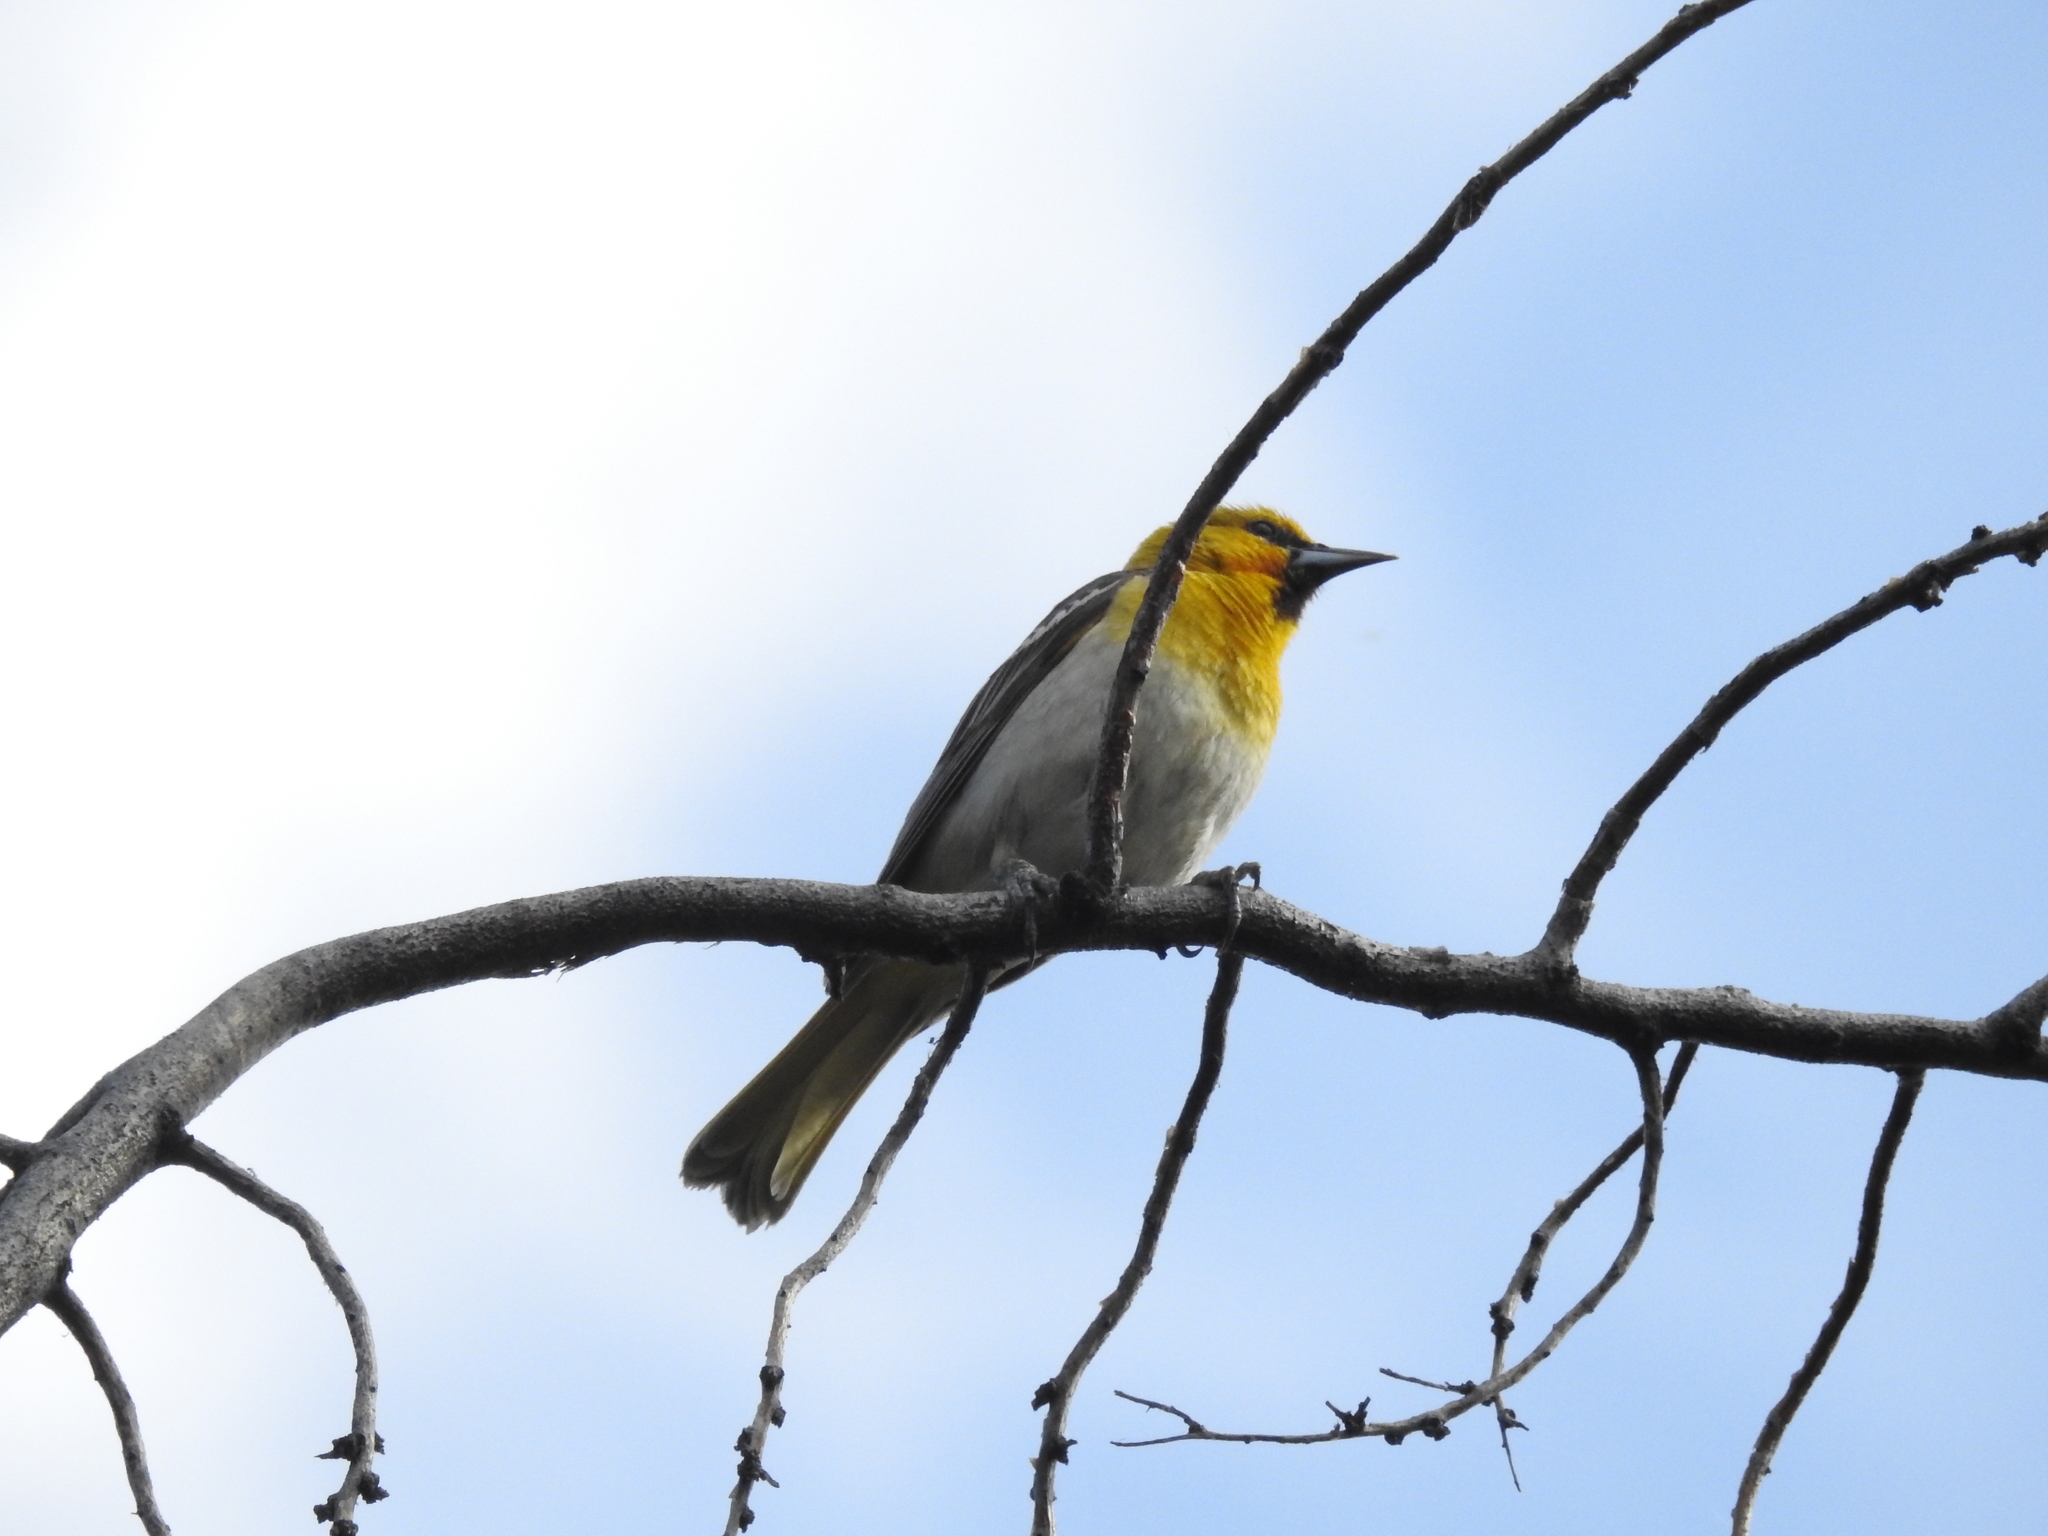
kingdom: Animalia
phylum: Chordata
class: Aves
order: Passeriformes
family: Icteridae
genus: Icterus
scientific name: Icterus bullockii
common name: Bullock's oriole
